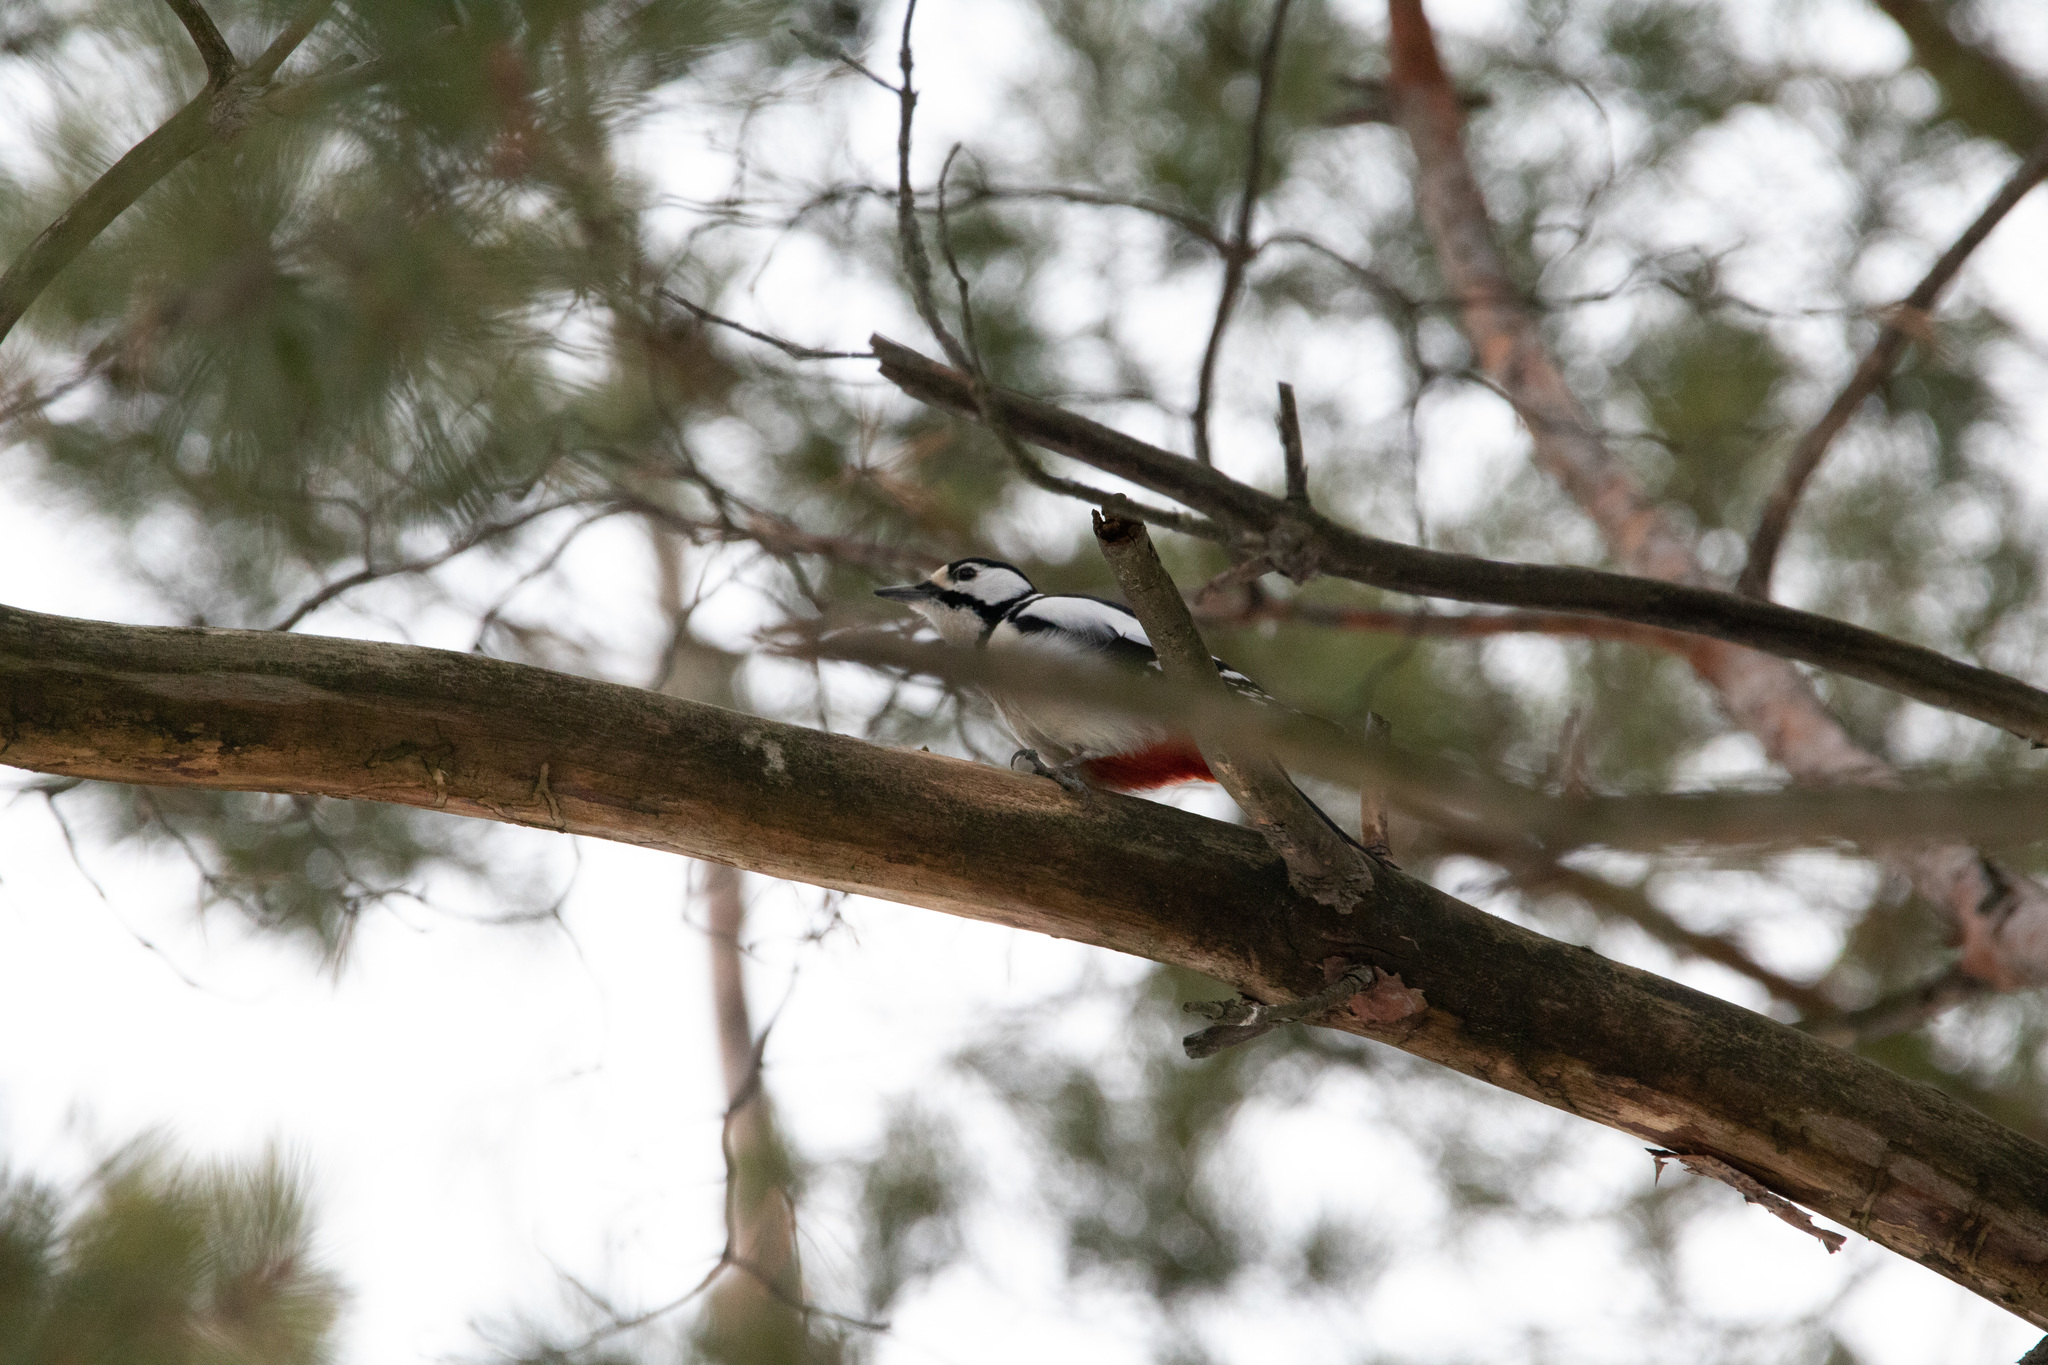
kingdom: Animalia
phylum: Chordata
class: Aves
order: Piciformes
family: Picidae
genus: Dendrocopos
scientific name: Dendrocopos major
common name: Great spotted woodpecker
